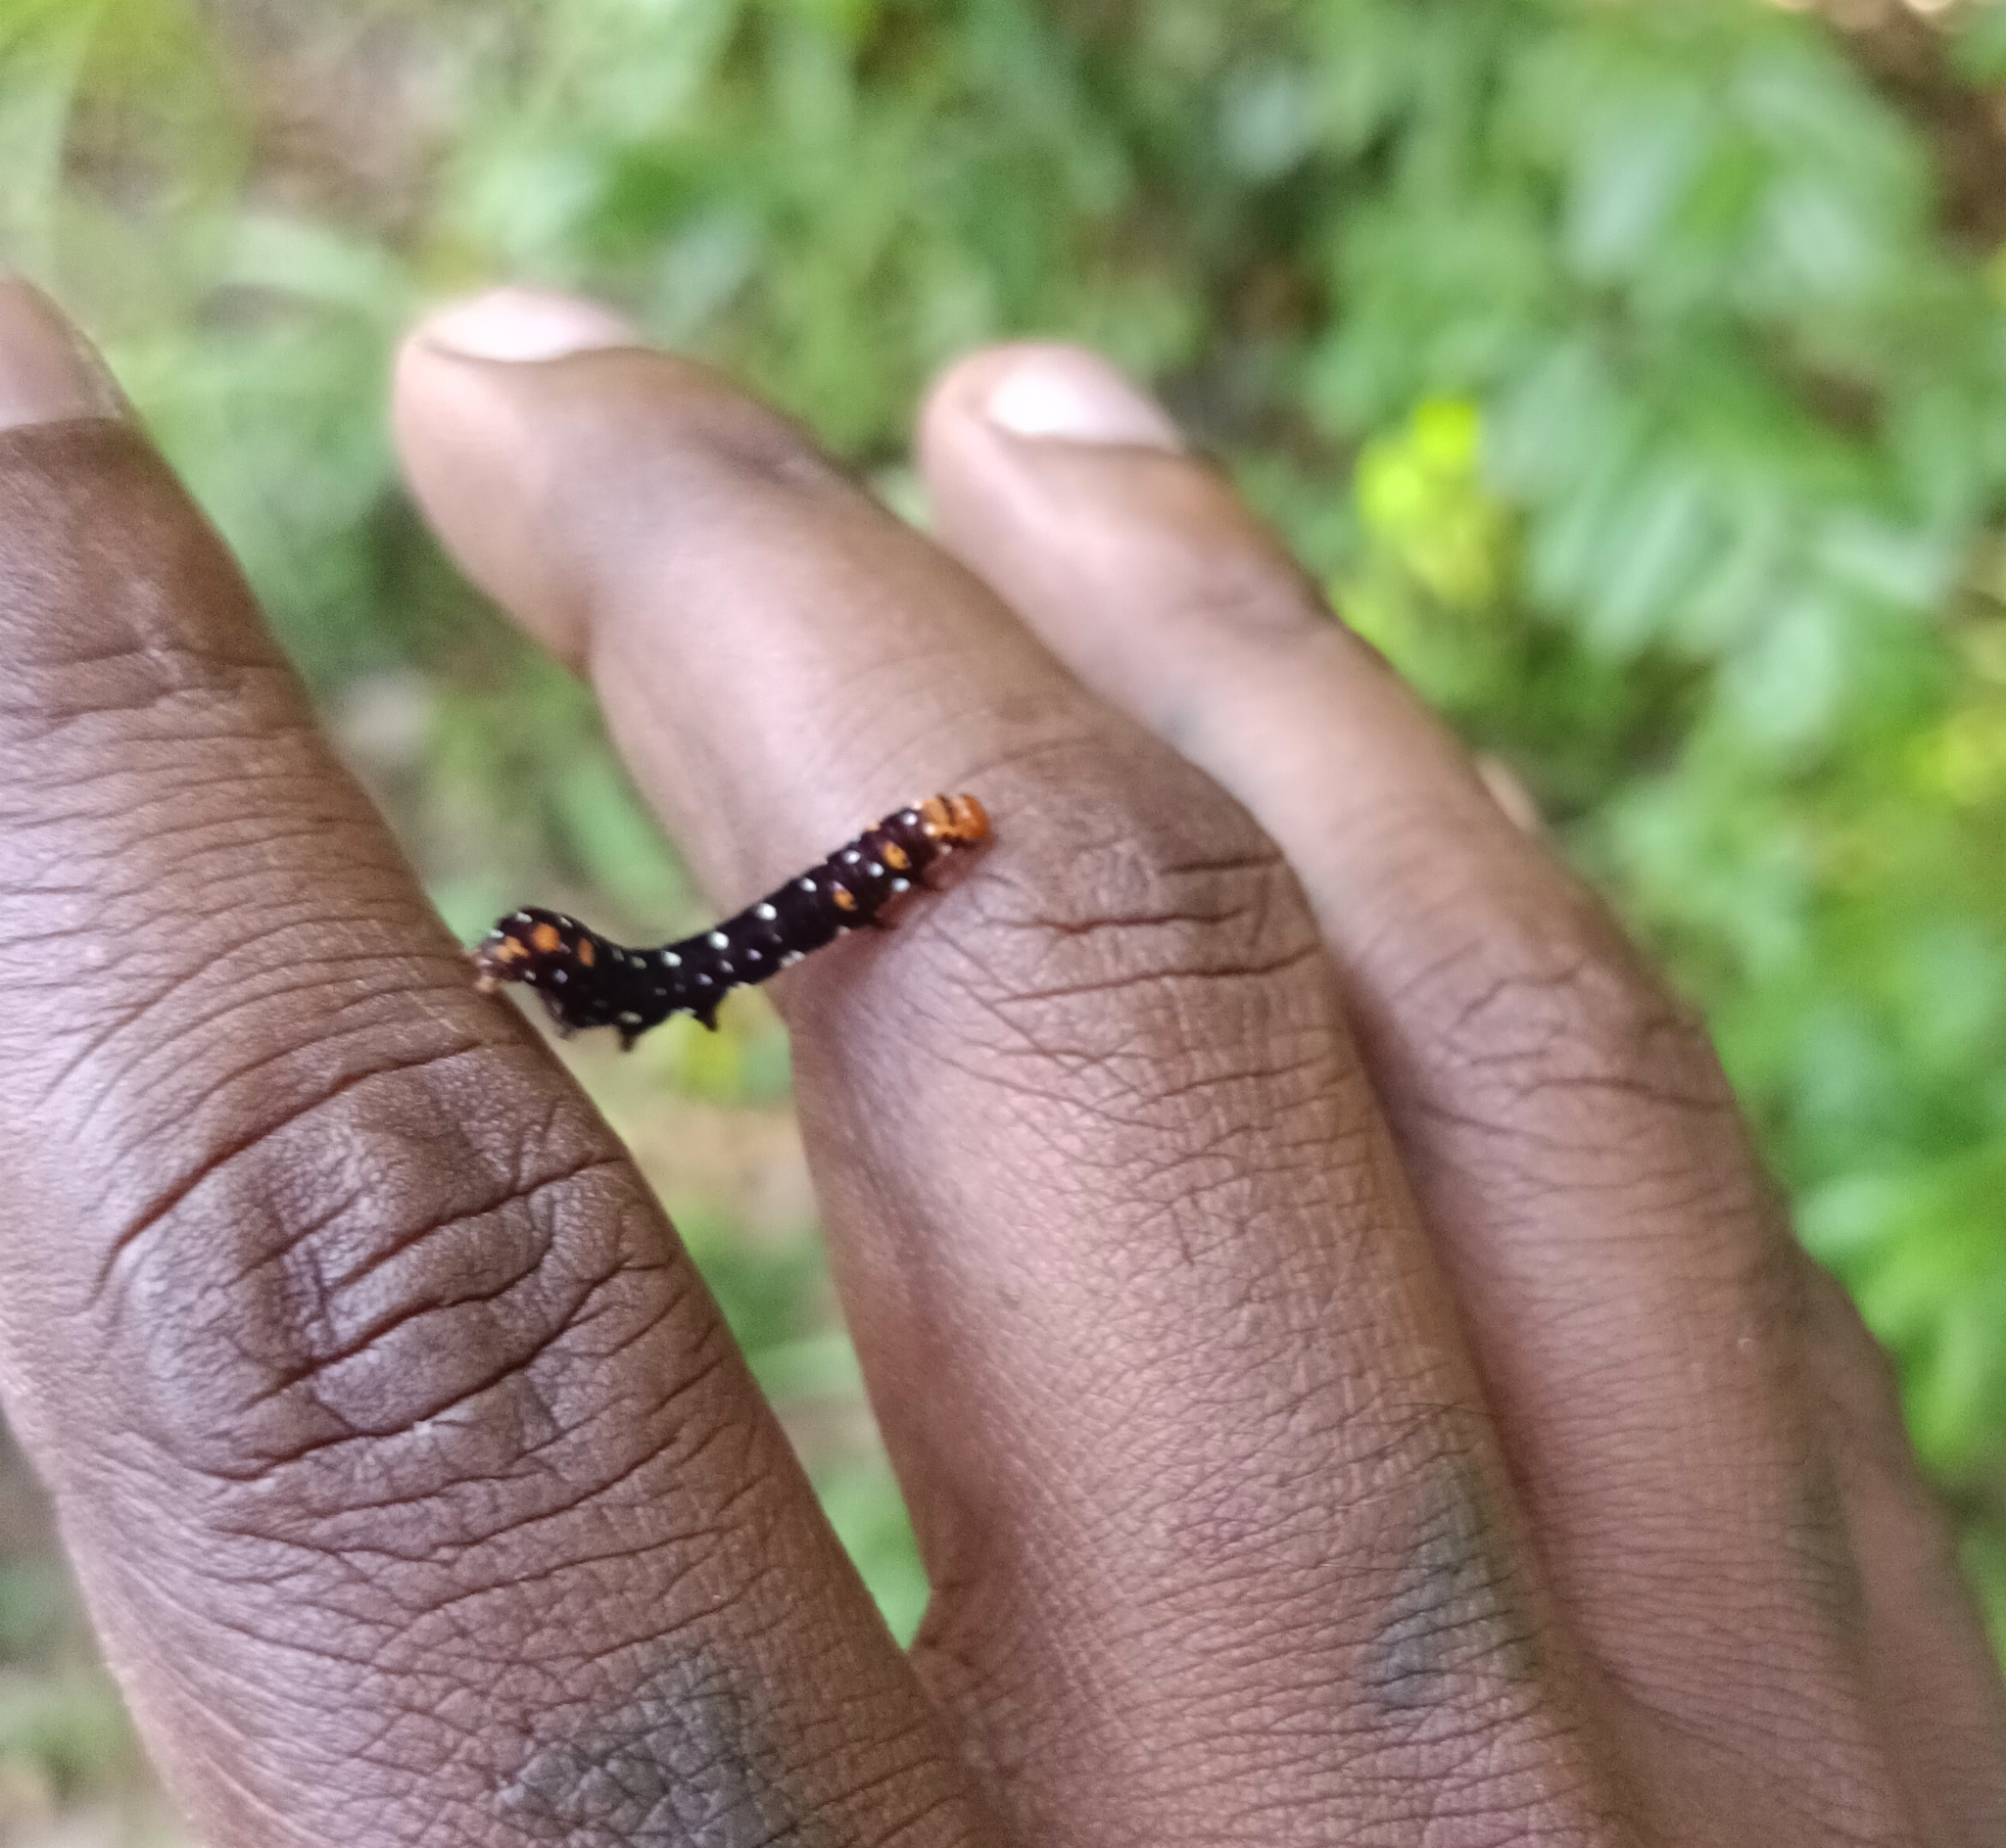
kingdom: Animalia
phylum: Arthropoda
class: Insecta
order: Lepidoptera
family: Noctuidae
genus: Polytela
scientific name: Polytela gloriosae
